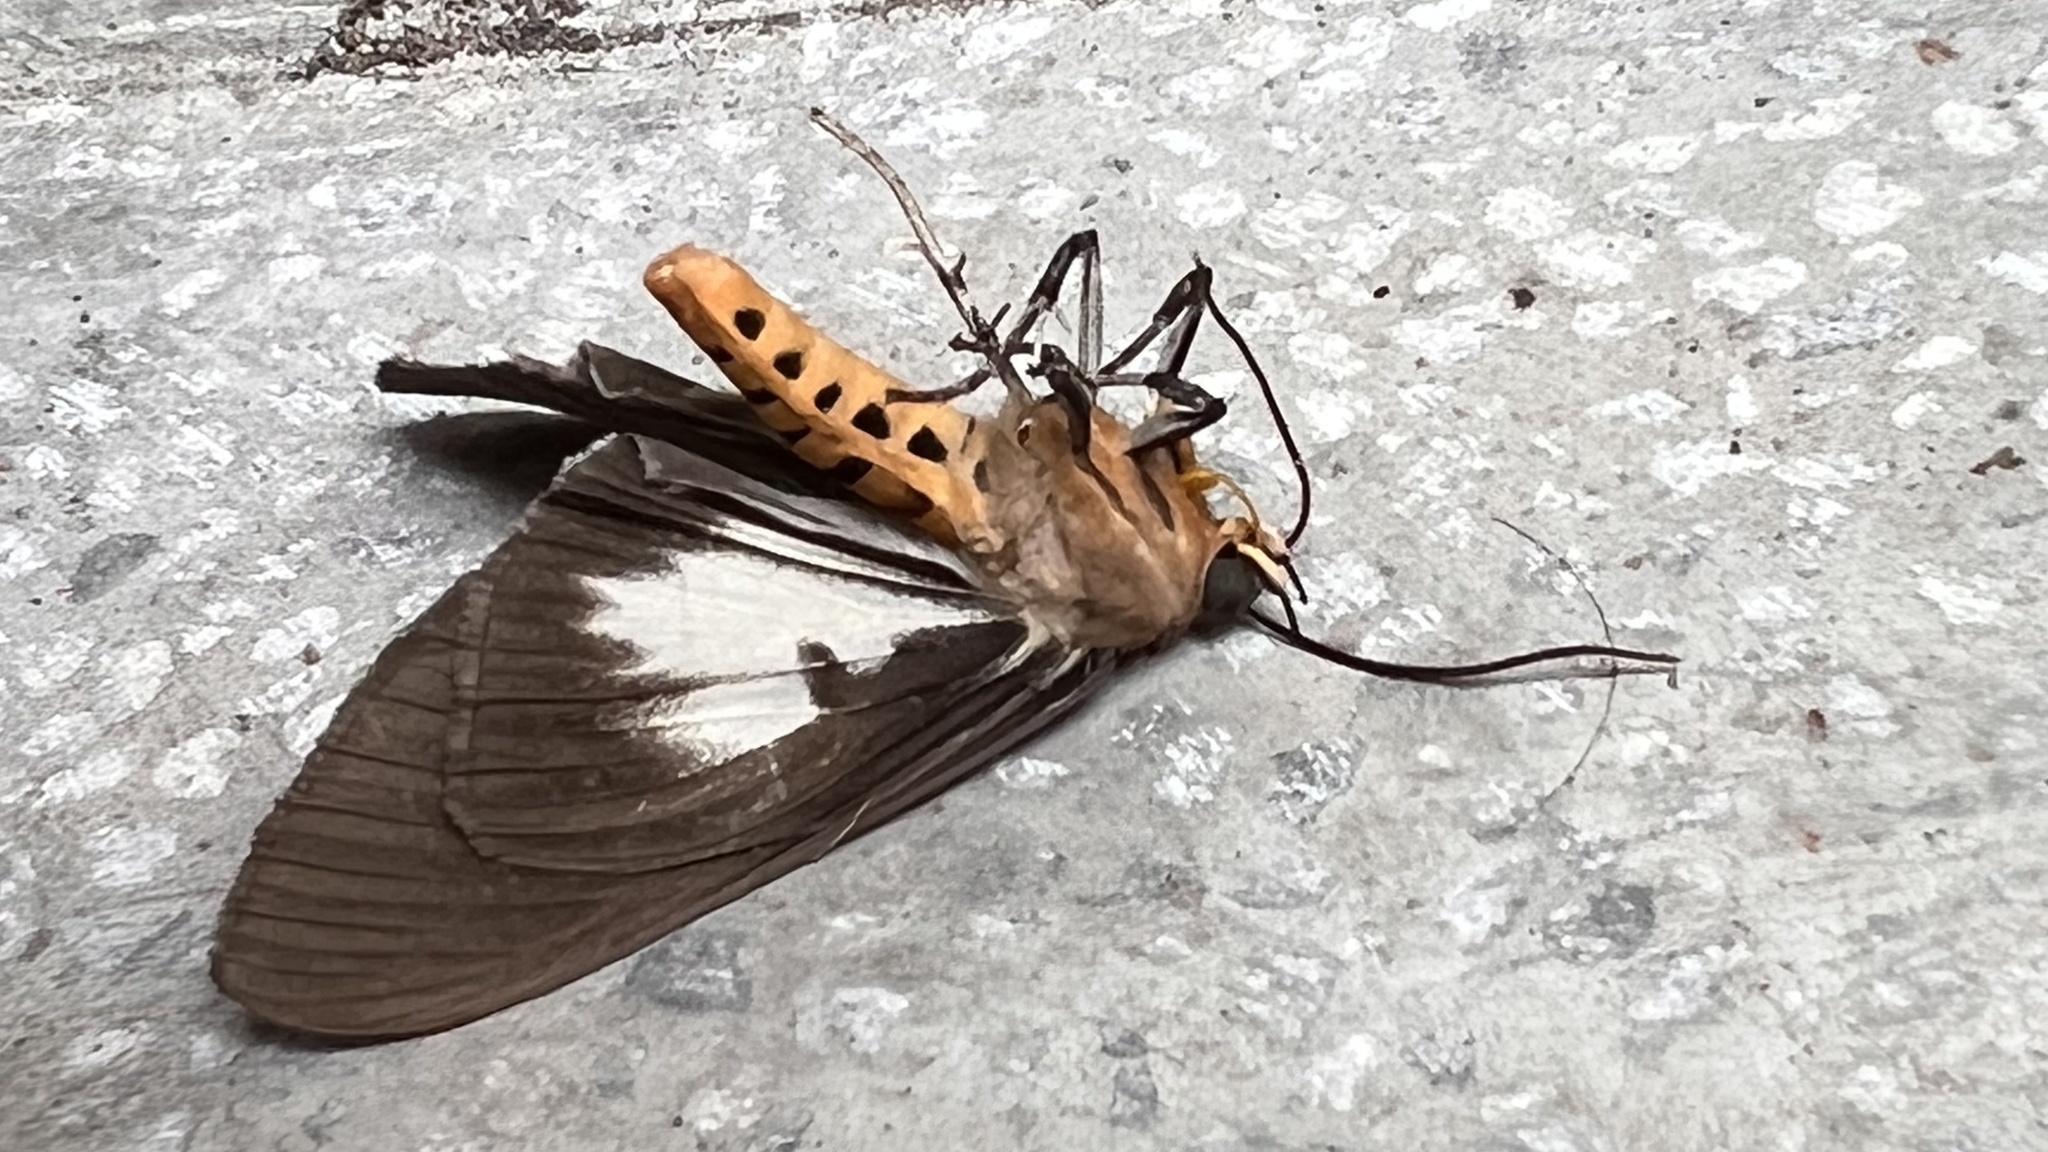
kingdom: Animalia
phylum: Arthropoda
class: Insecta
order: Lepidoptera
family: Erebidae
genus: Asota
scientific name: Asota plana
